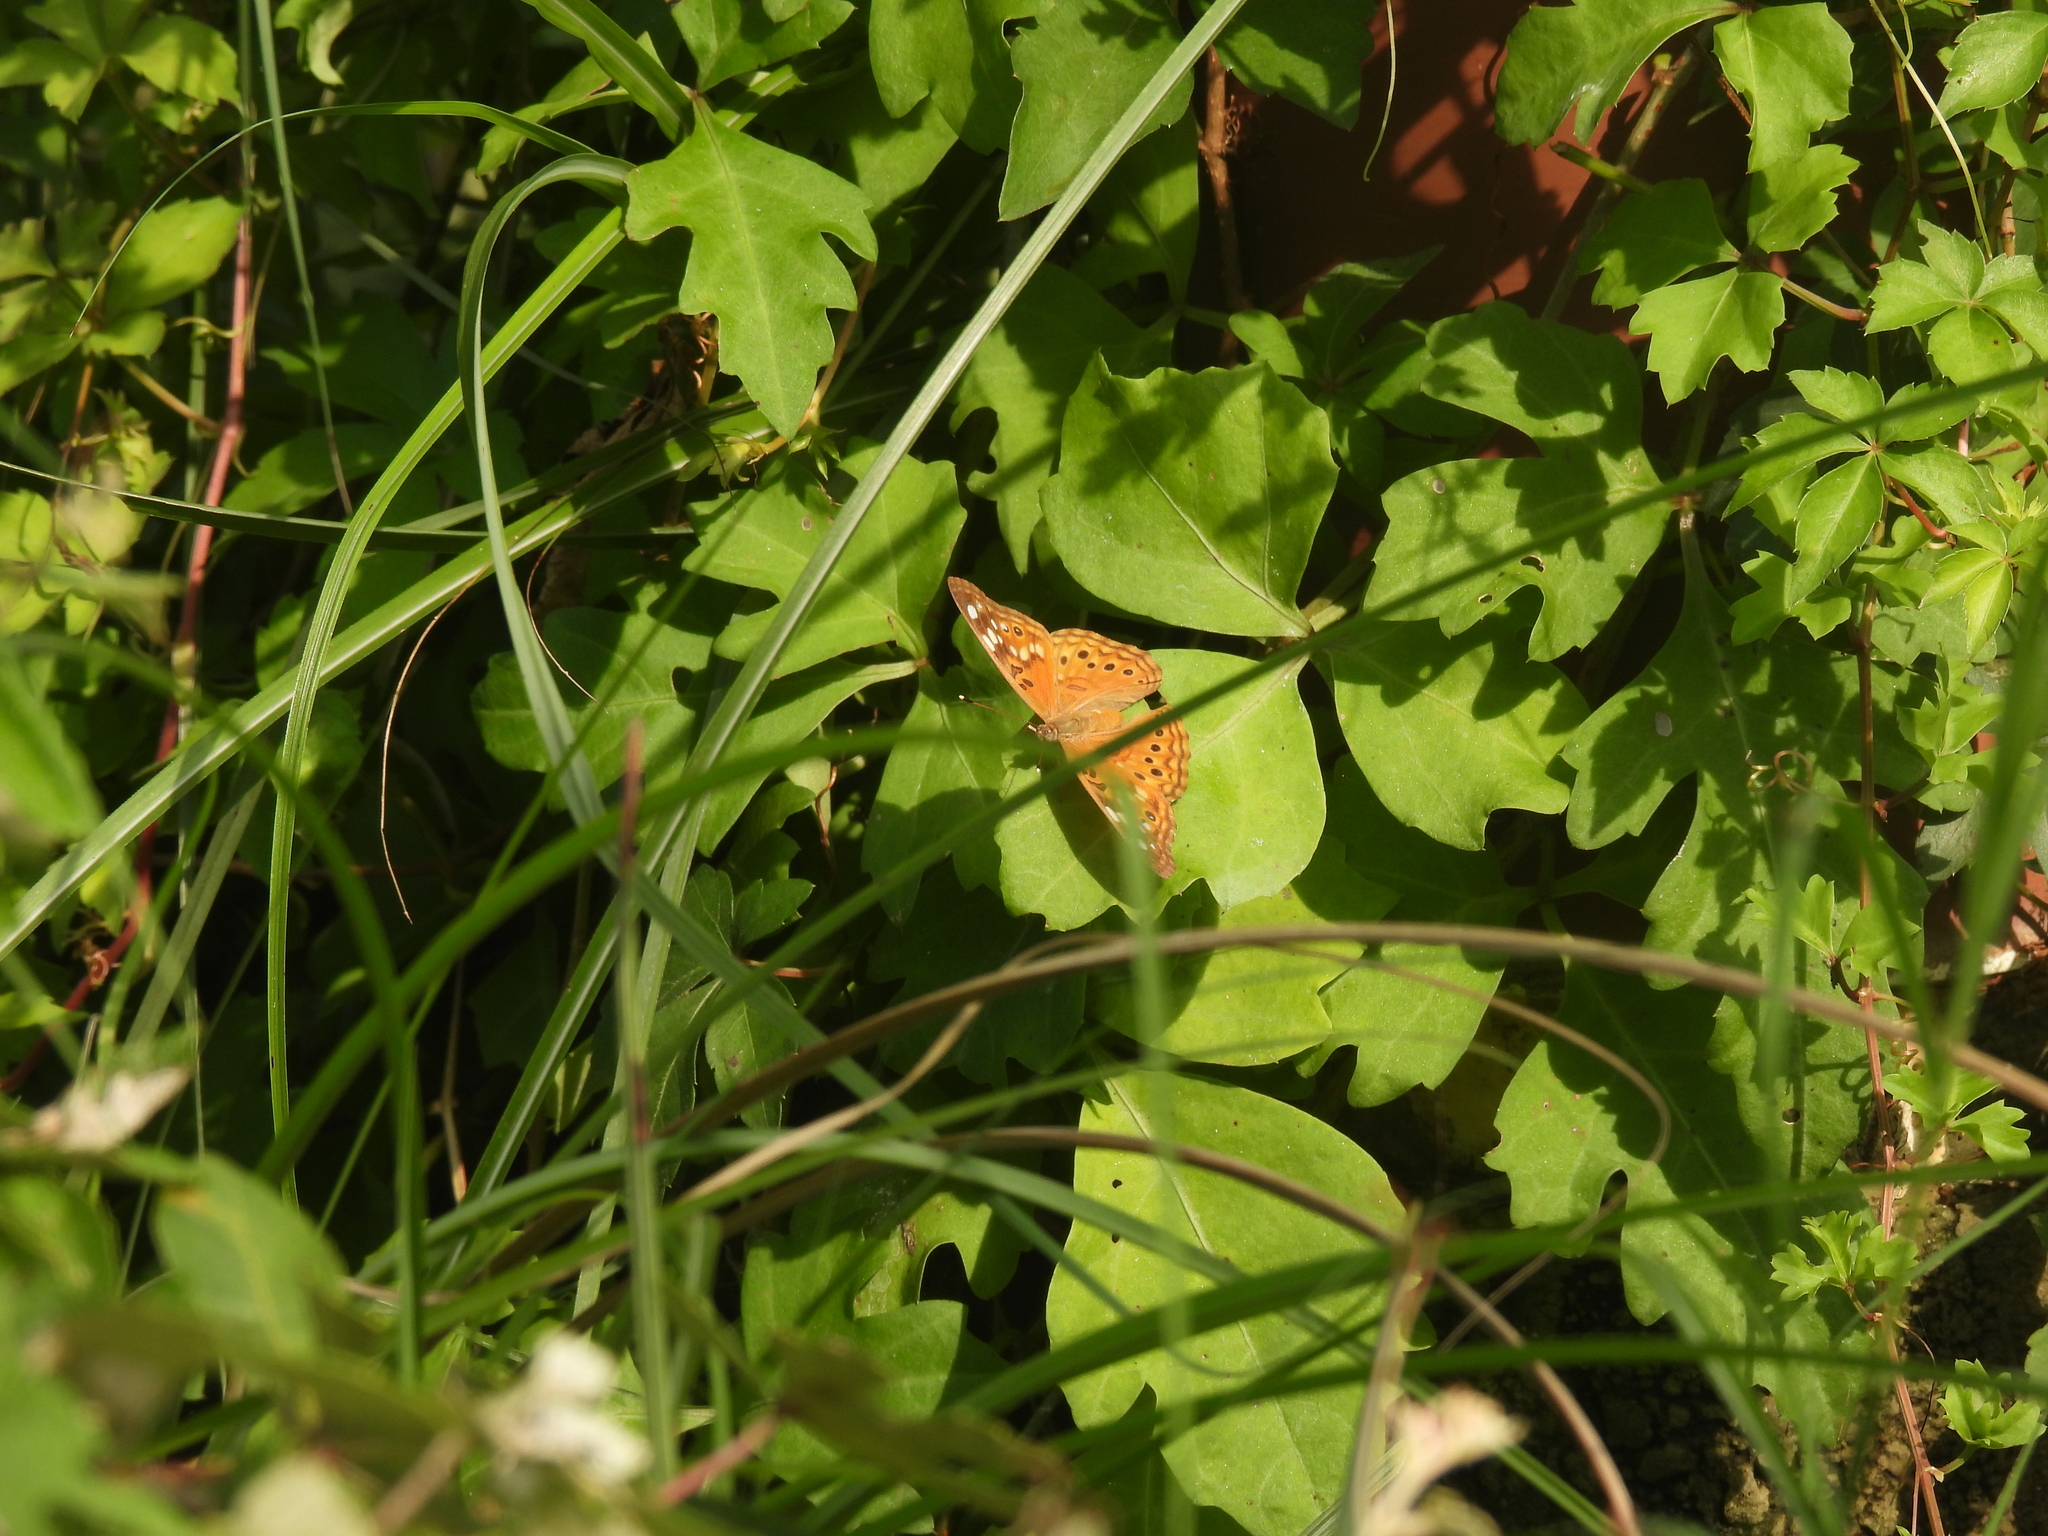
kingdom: Animalia
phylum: Arthropoda
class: Insecta
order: Lepidoptera
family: Nymphalidae
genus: Asterocampa
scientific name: Asterocampa celtis
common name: Hackberry emperor
